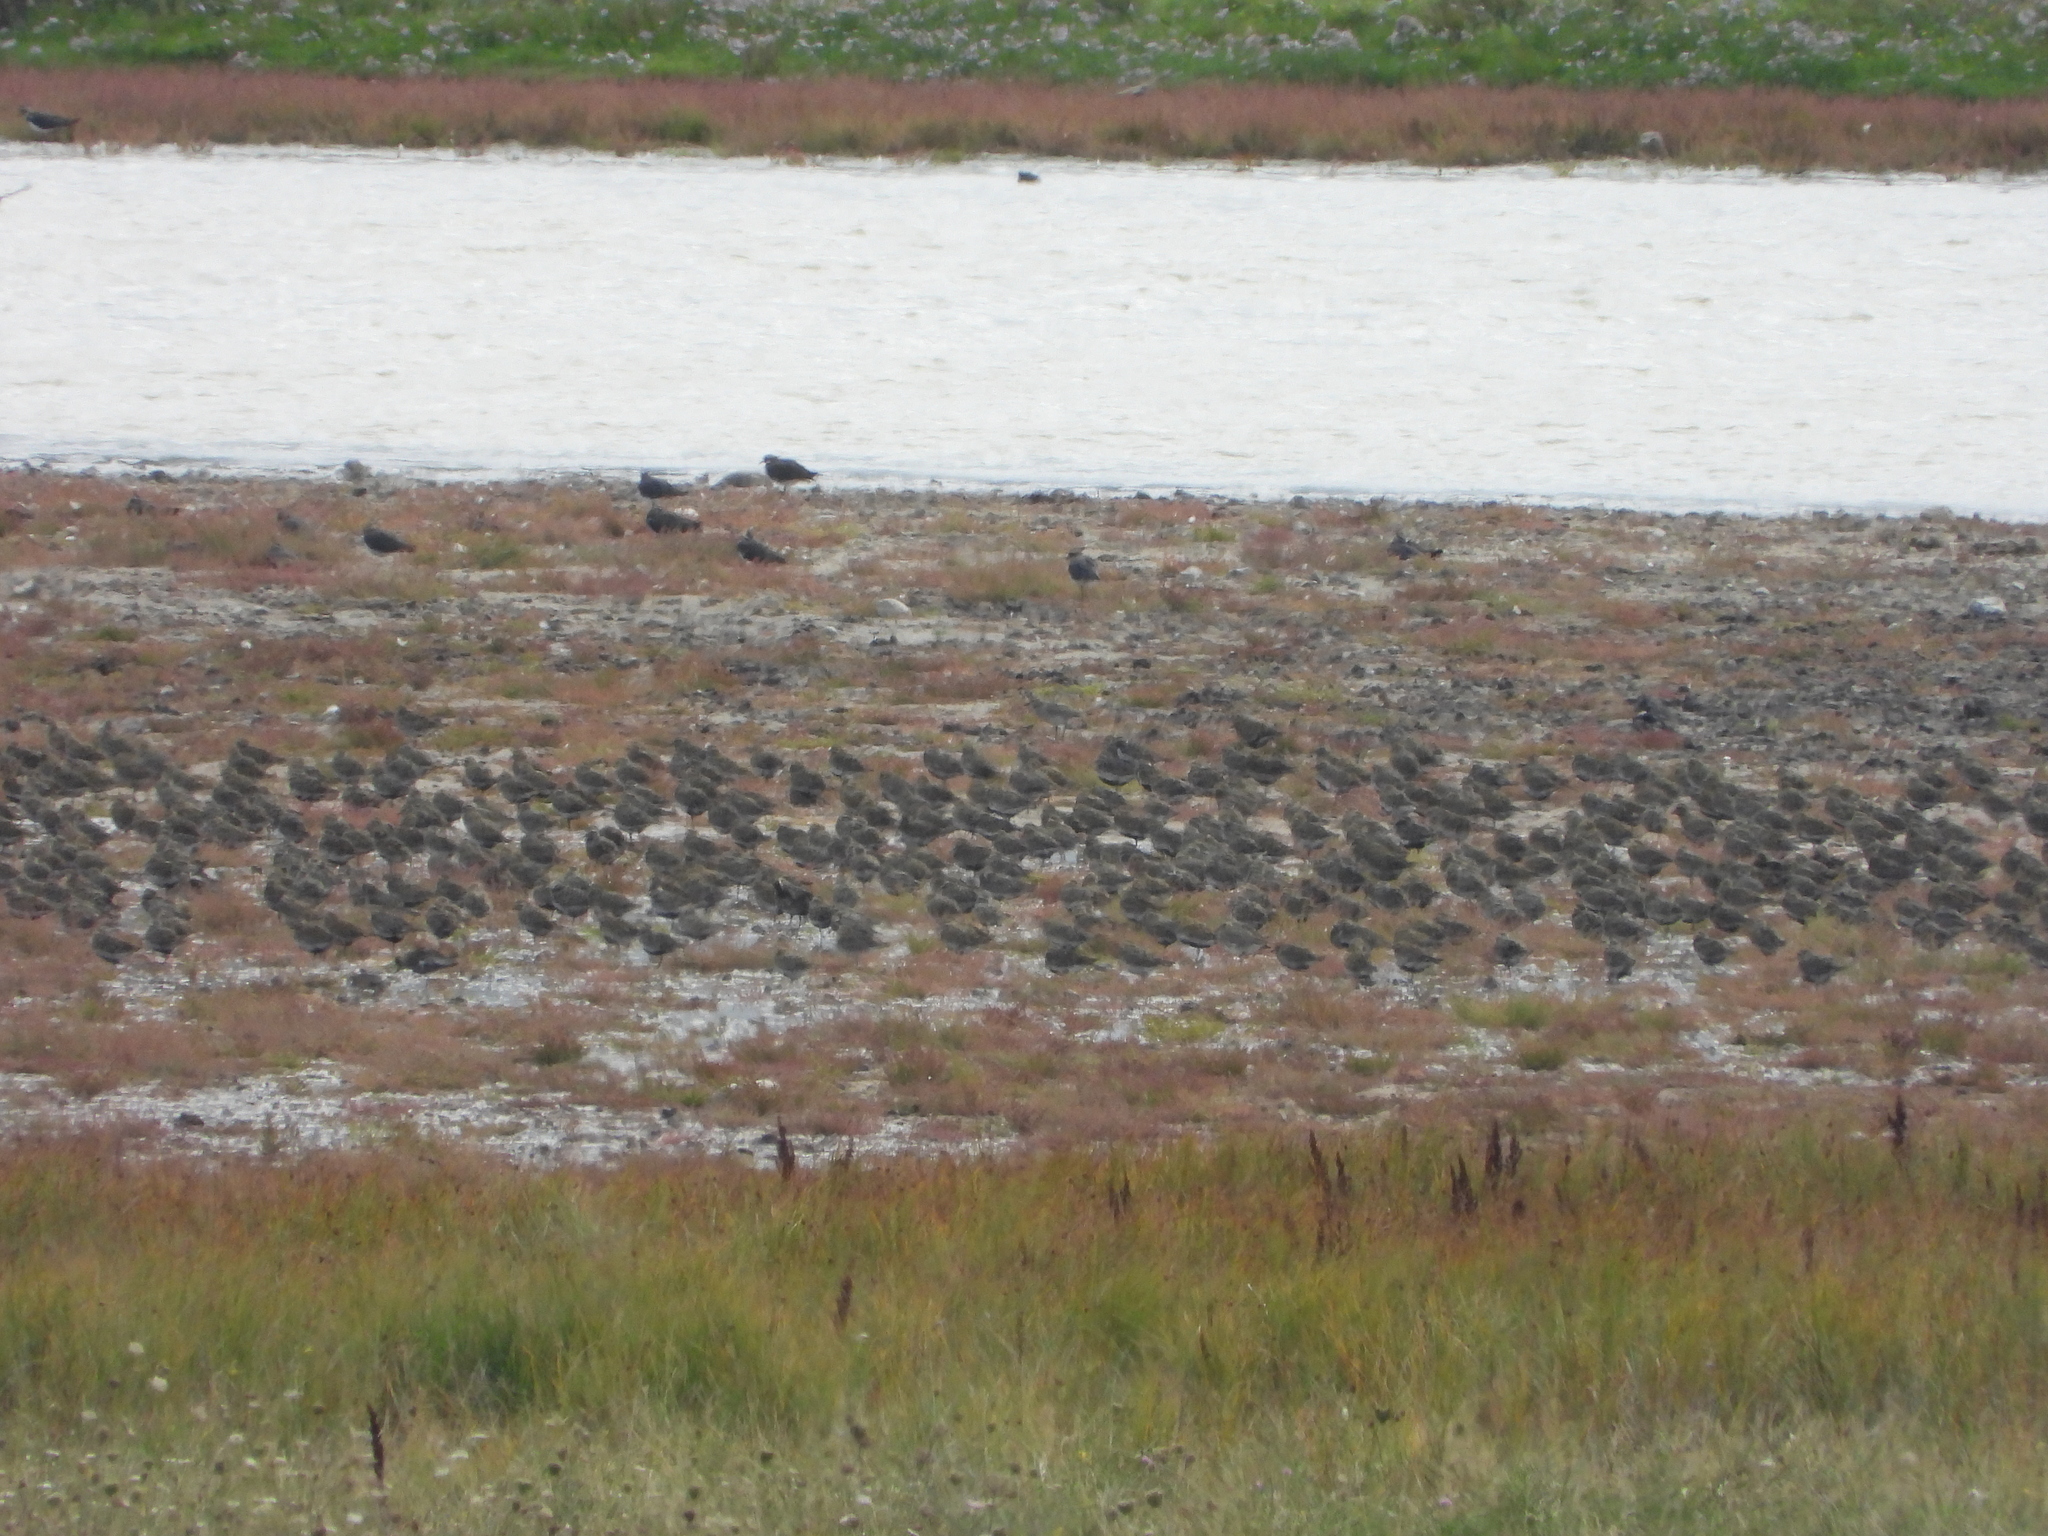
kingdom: Animalia
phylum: Chordata
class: Aves
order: Charadriiformes
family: Charadriidae
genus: Pluvialis
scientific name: Pluvialis apricaria
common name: European golden plover
